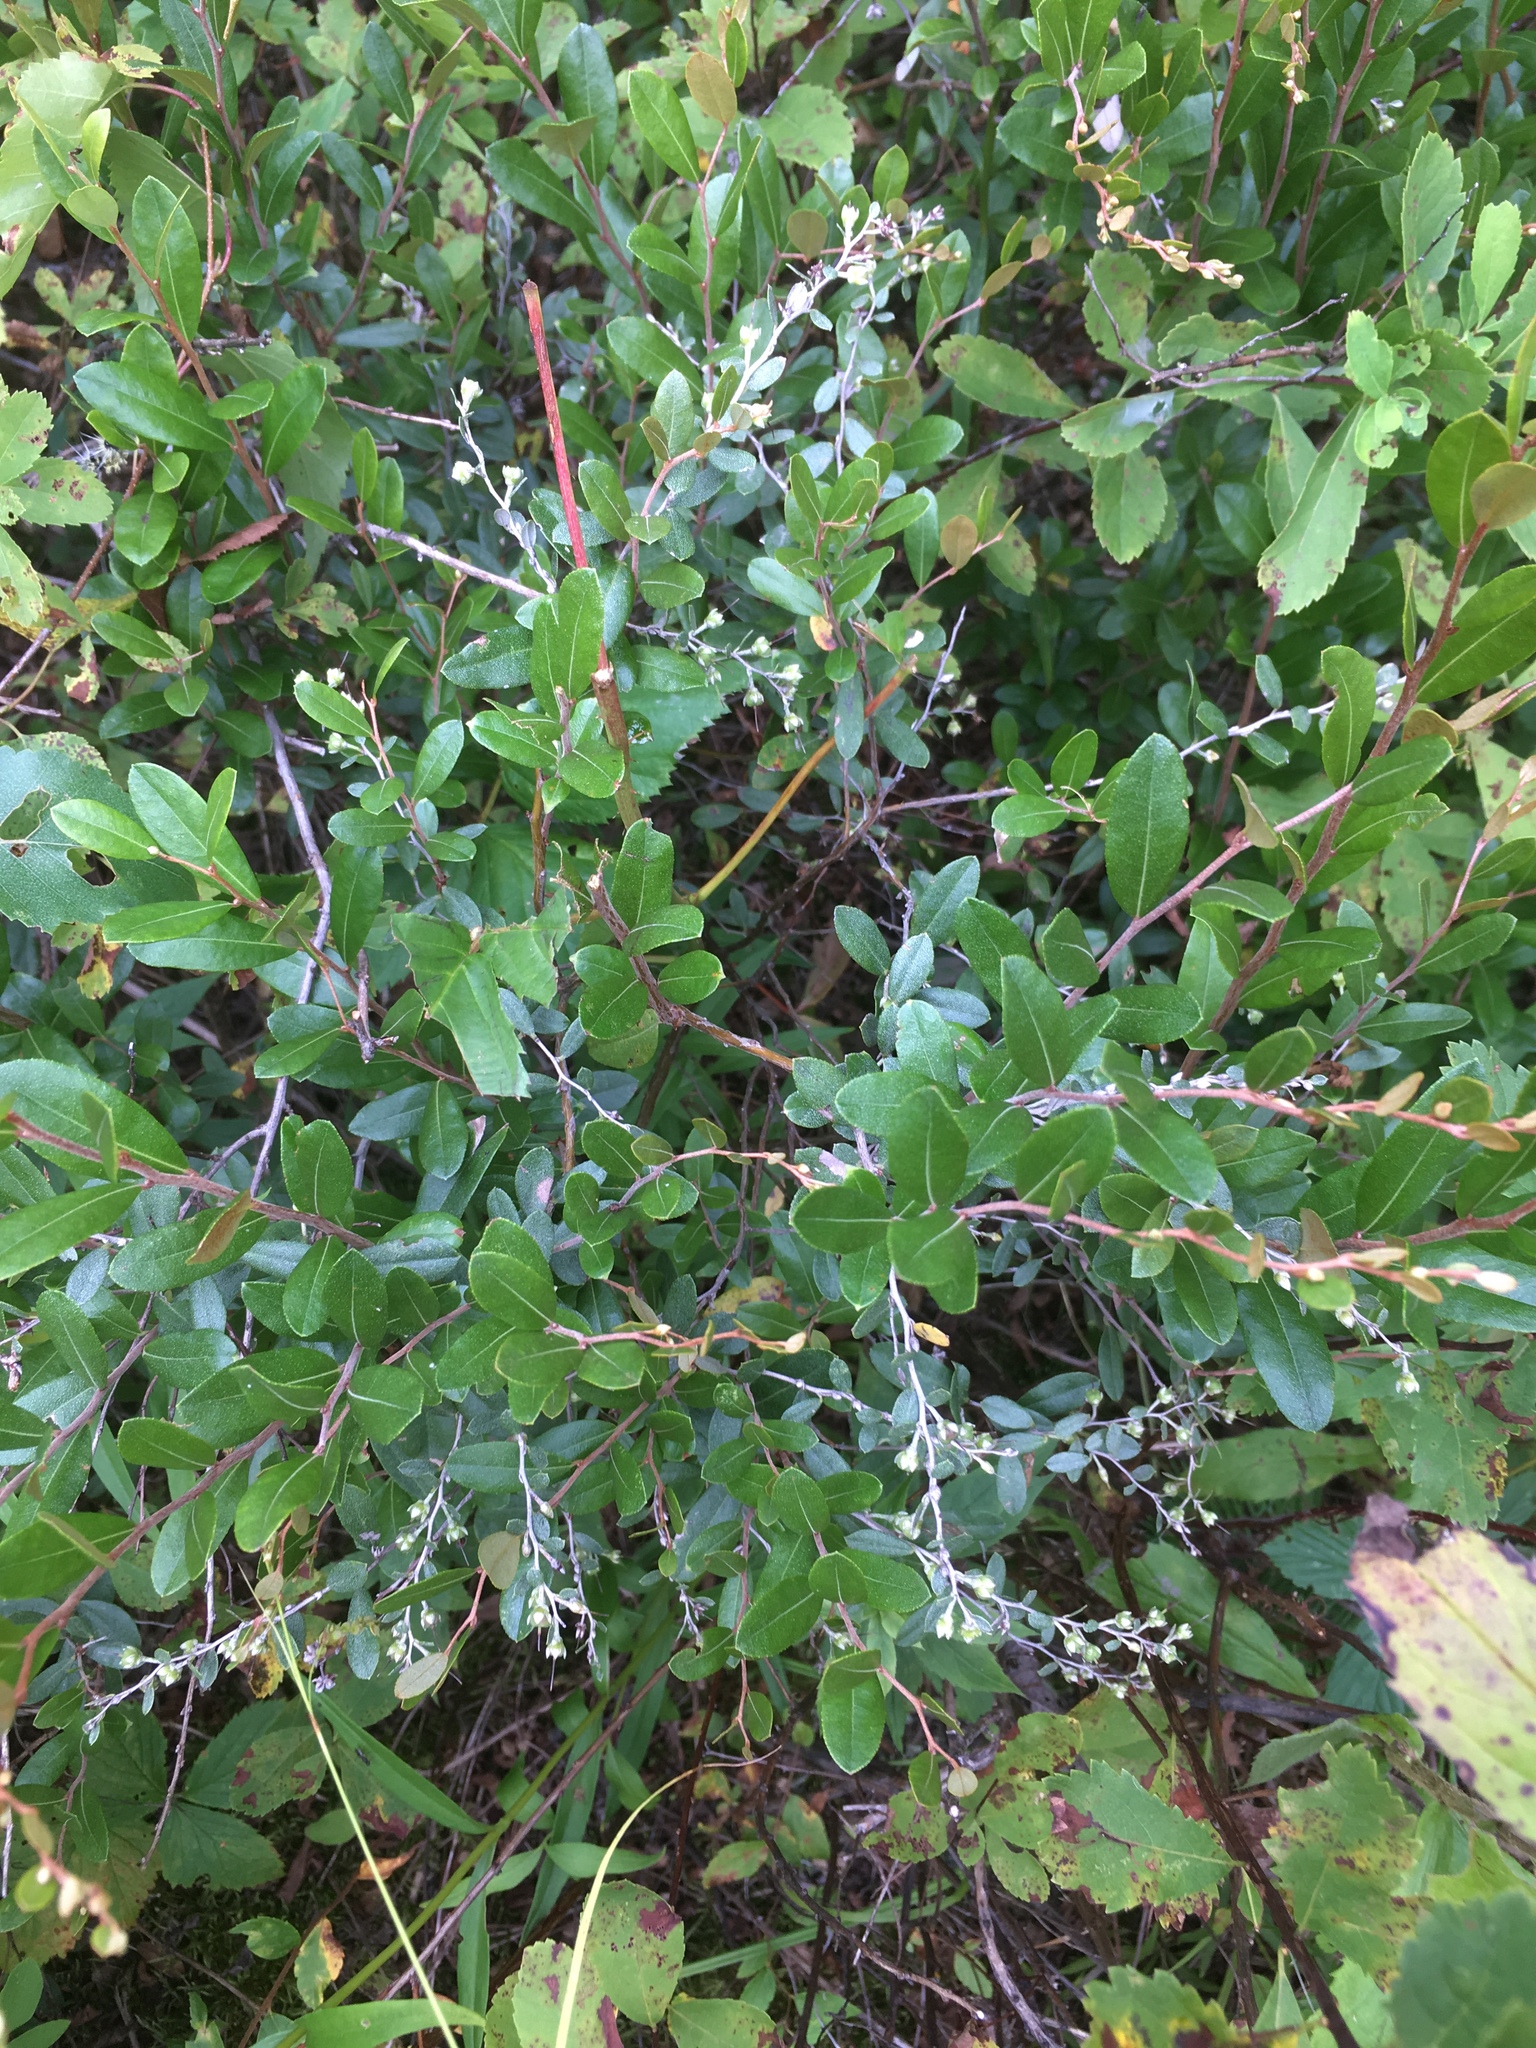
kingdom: Plantae
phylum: Tracheophyta
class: Magnoliopsida
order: Ericales
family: Ericaceae
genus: Chamaedaphne
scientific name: Chamaedaphne calyculata
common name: Leatherleaf
